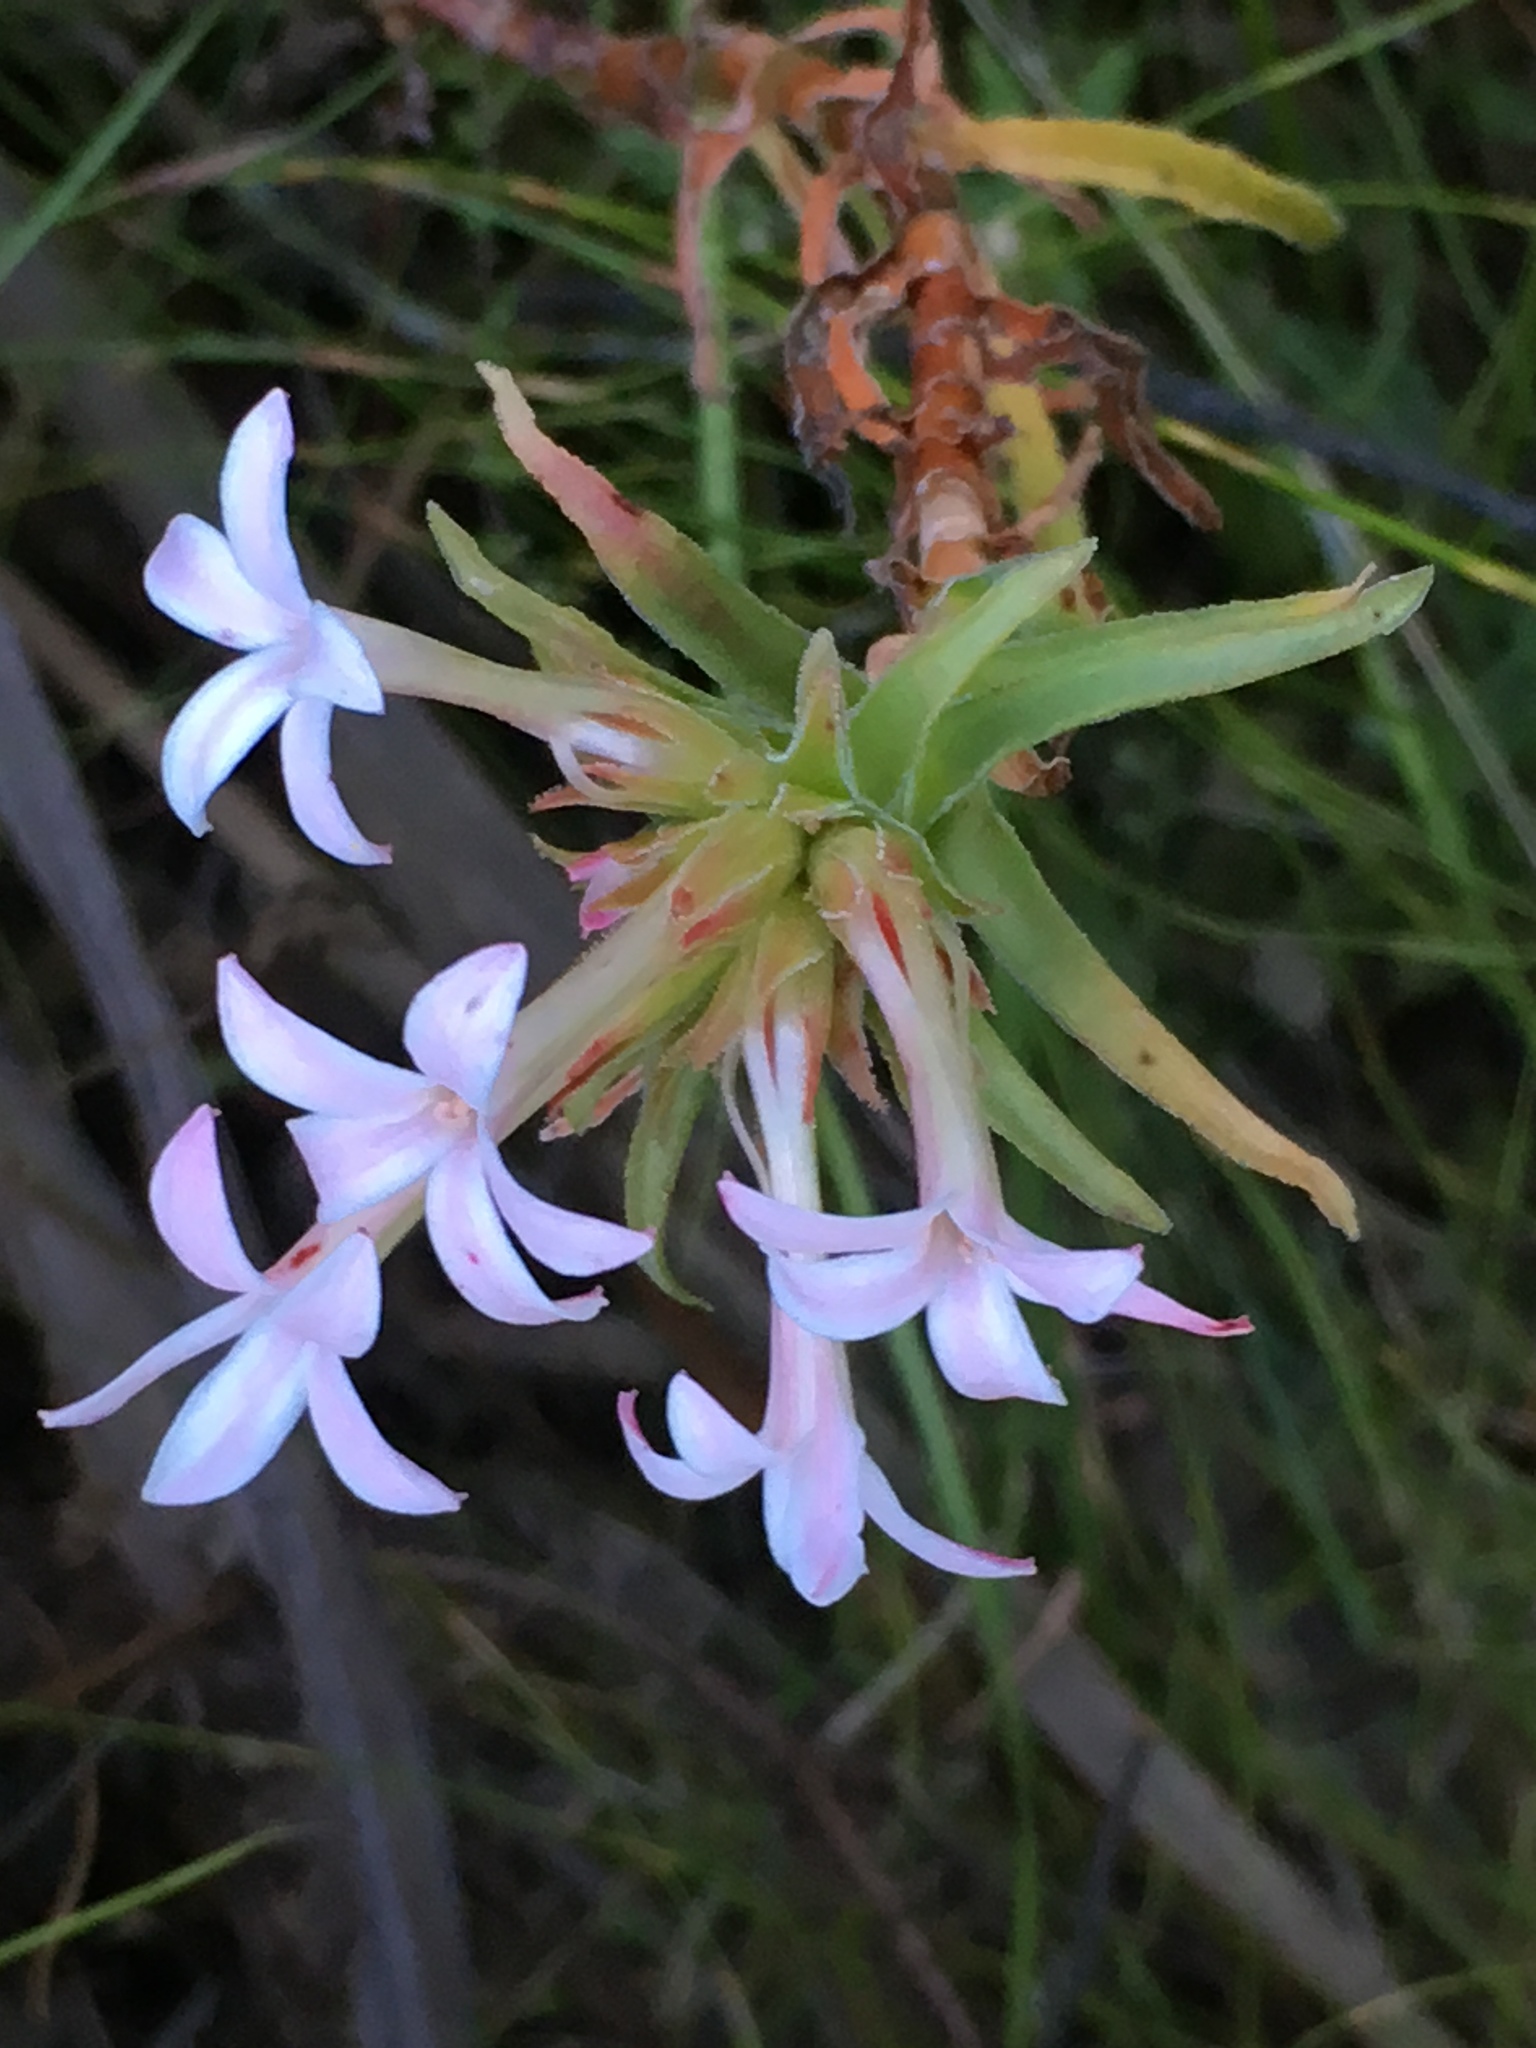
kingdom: Plantae
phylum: Tracheophyta
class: Magnoliopsida
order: Saxifragales
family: Crassulaceae
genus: Crassula
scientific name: Crassula fascicularis
